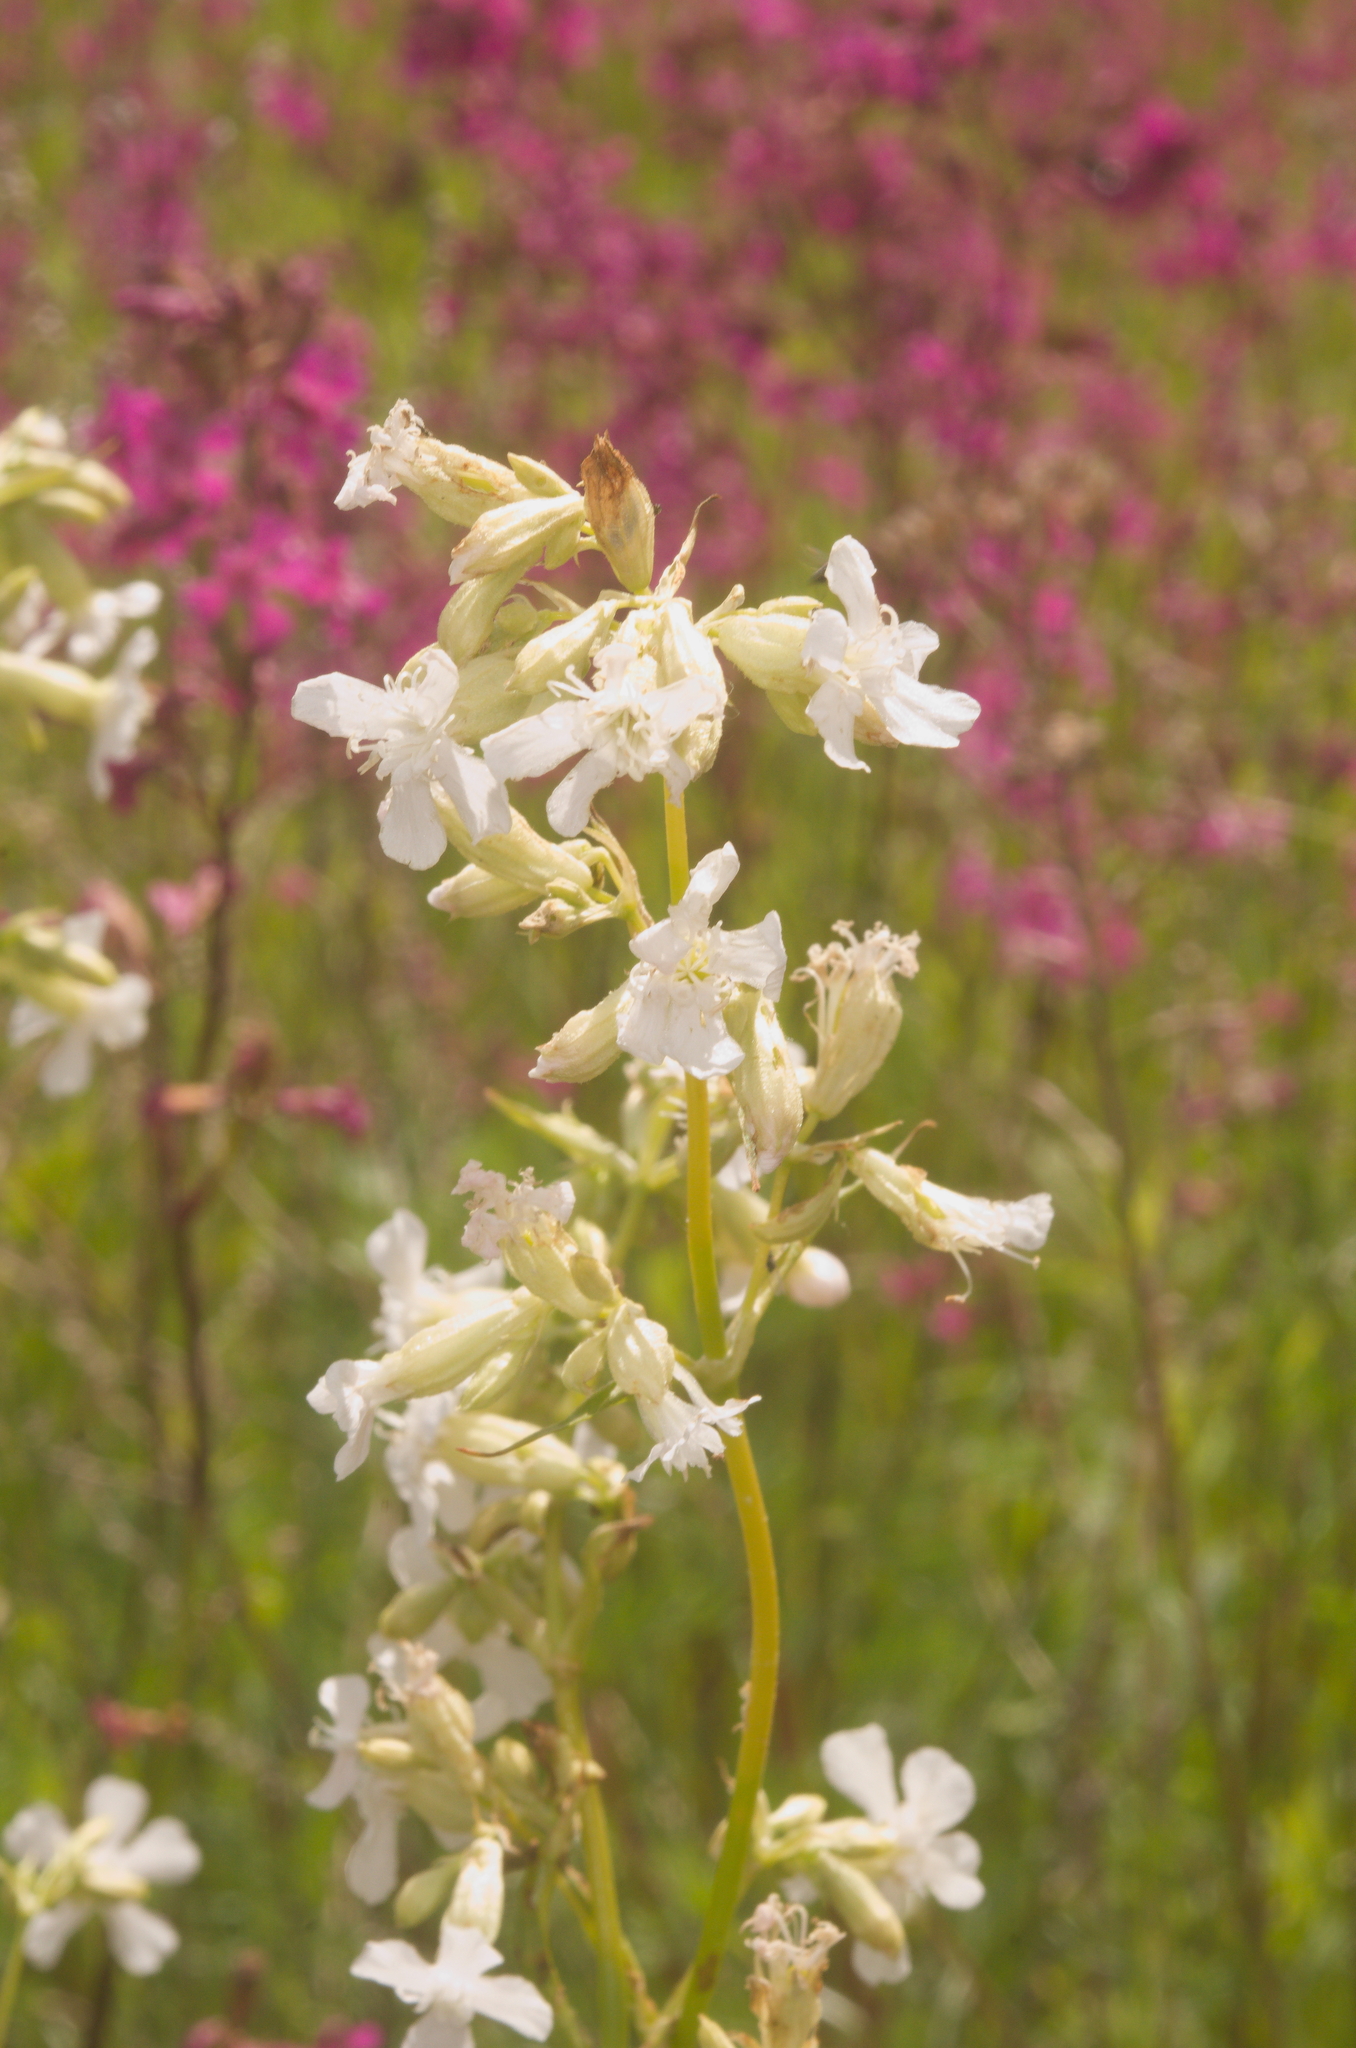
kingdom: Plantae
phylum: Tracheophyta
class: Magnoliopsida
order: Caryophyllales
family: Caryophyllaceae
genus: Viscaria
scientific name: Viscaria vulgaris
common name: Clammy campion
